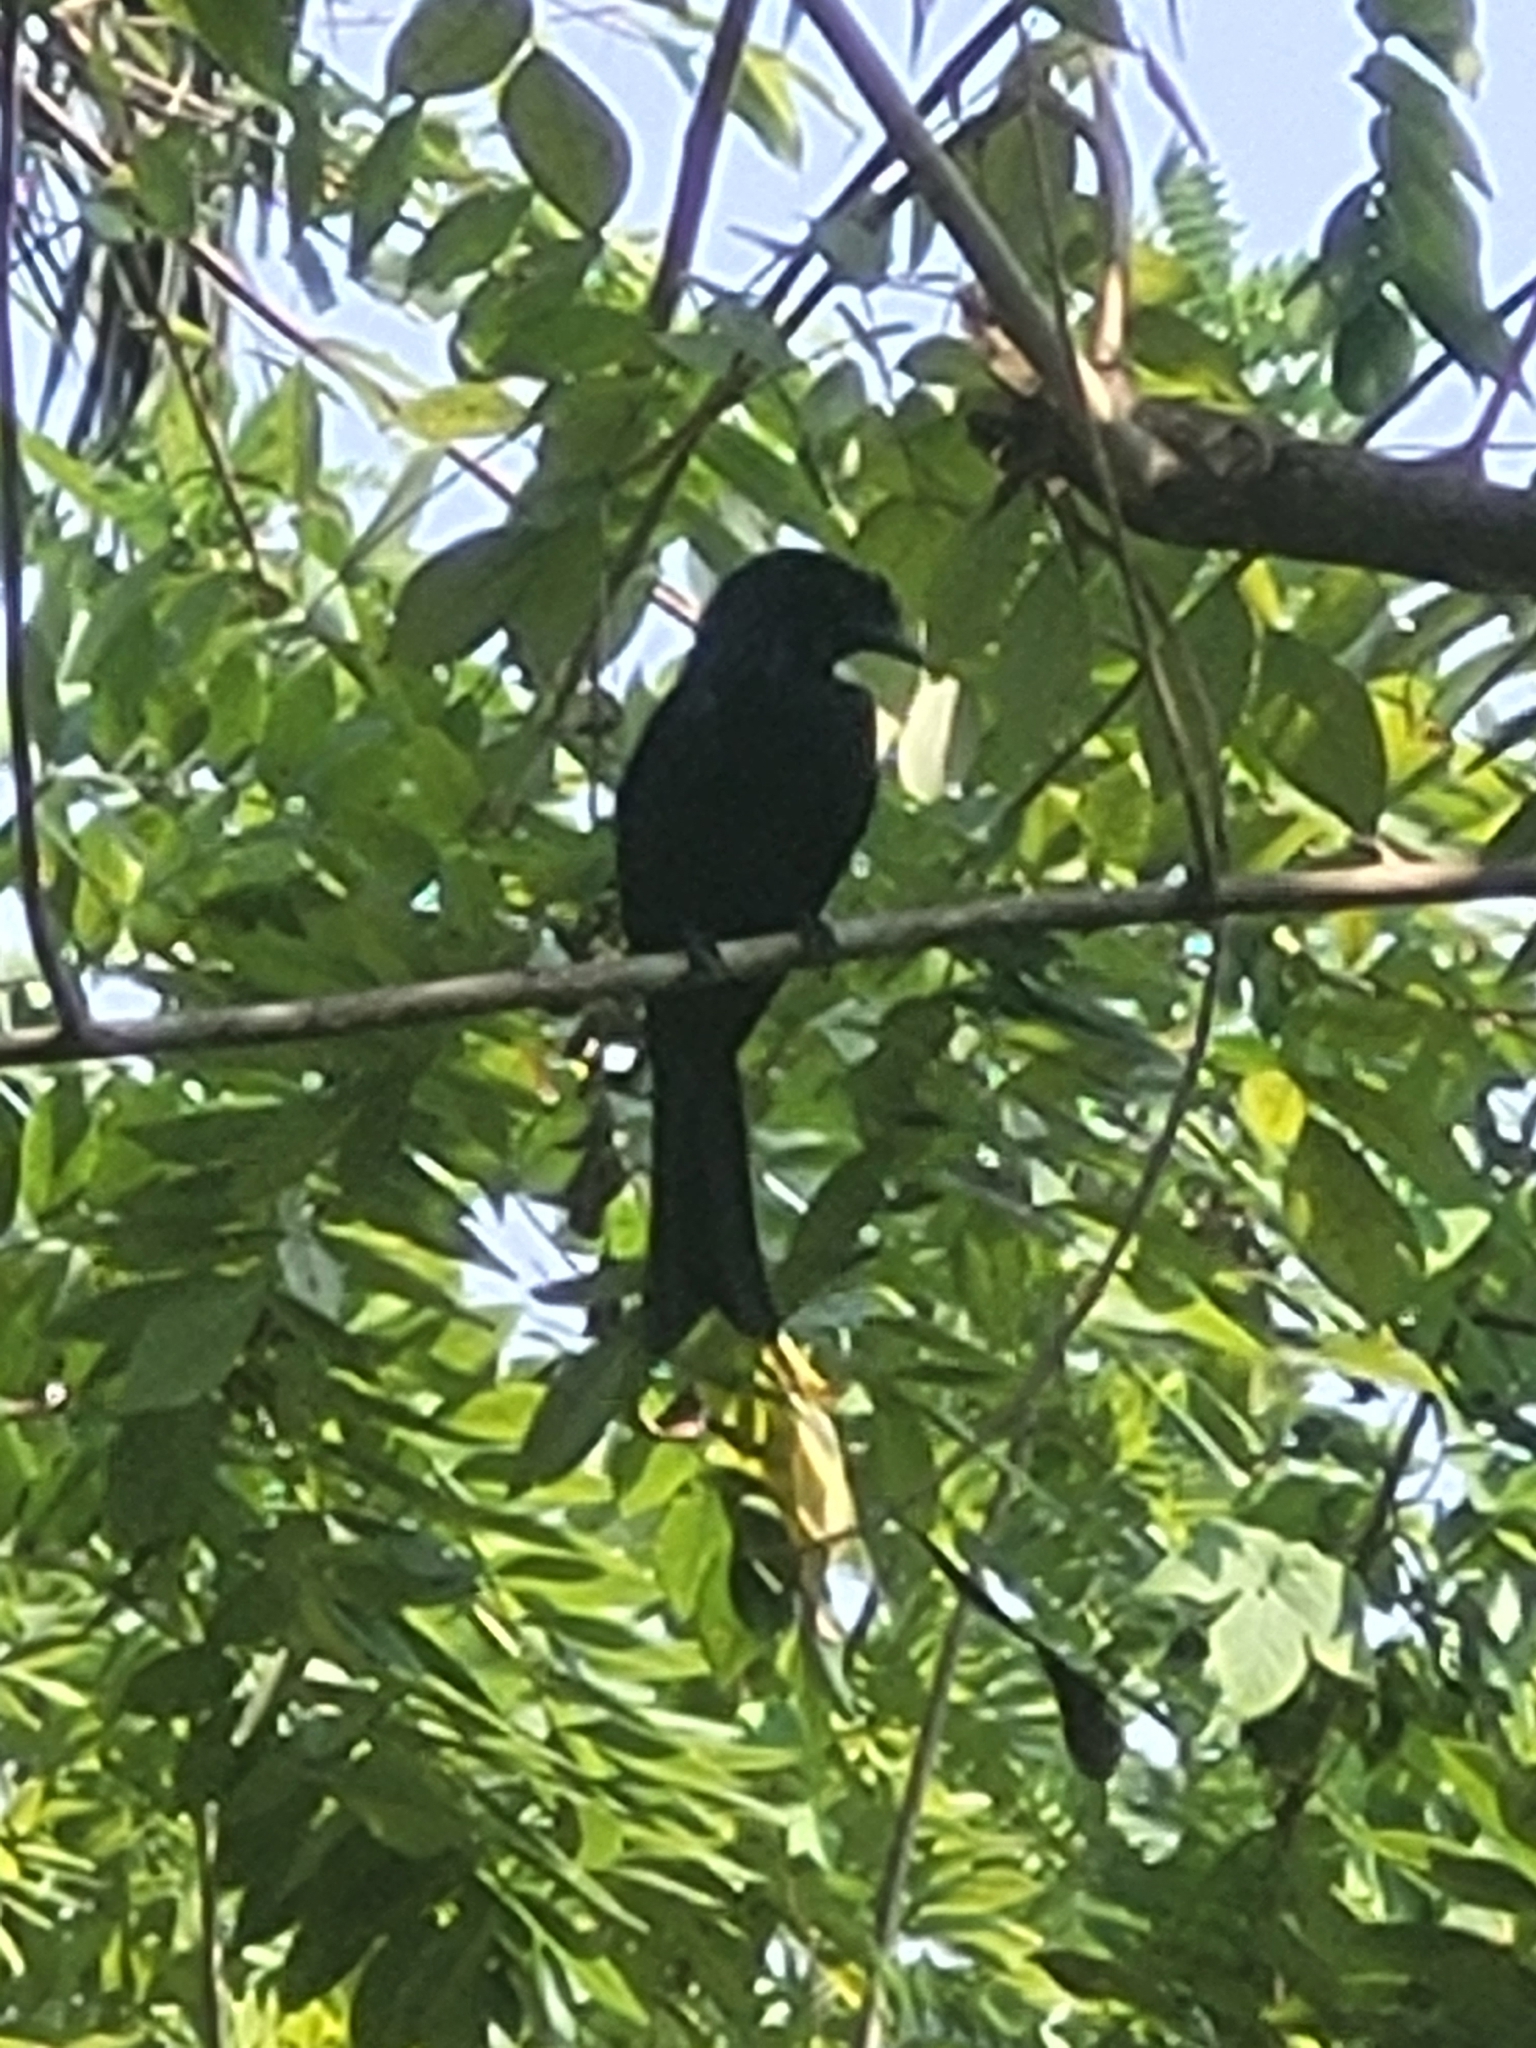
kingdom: Animalia
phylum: Chordata
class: Aves
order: Passeriformes
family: Dicruridae
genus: Dicrurus
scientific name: Dicrurus paradiseus
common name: Greater racket-tailed drongo
